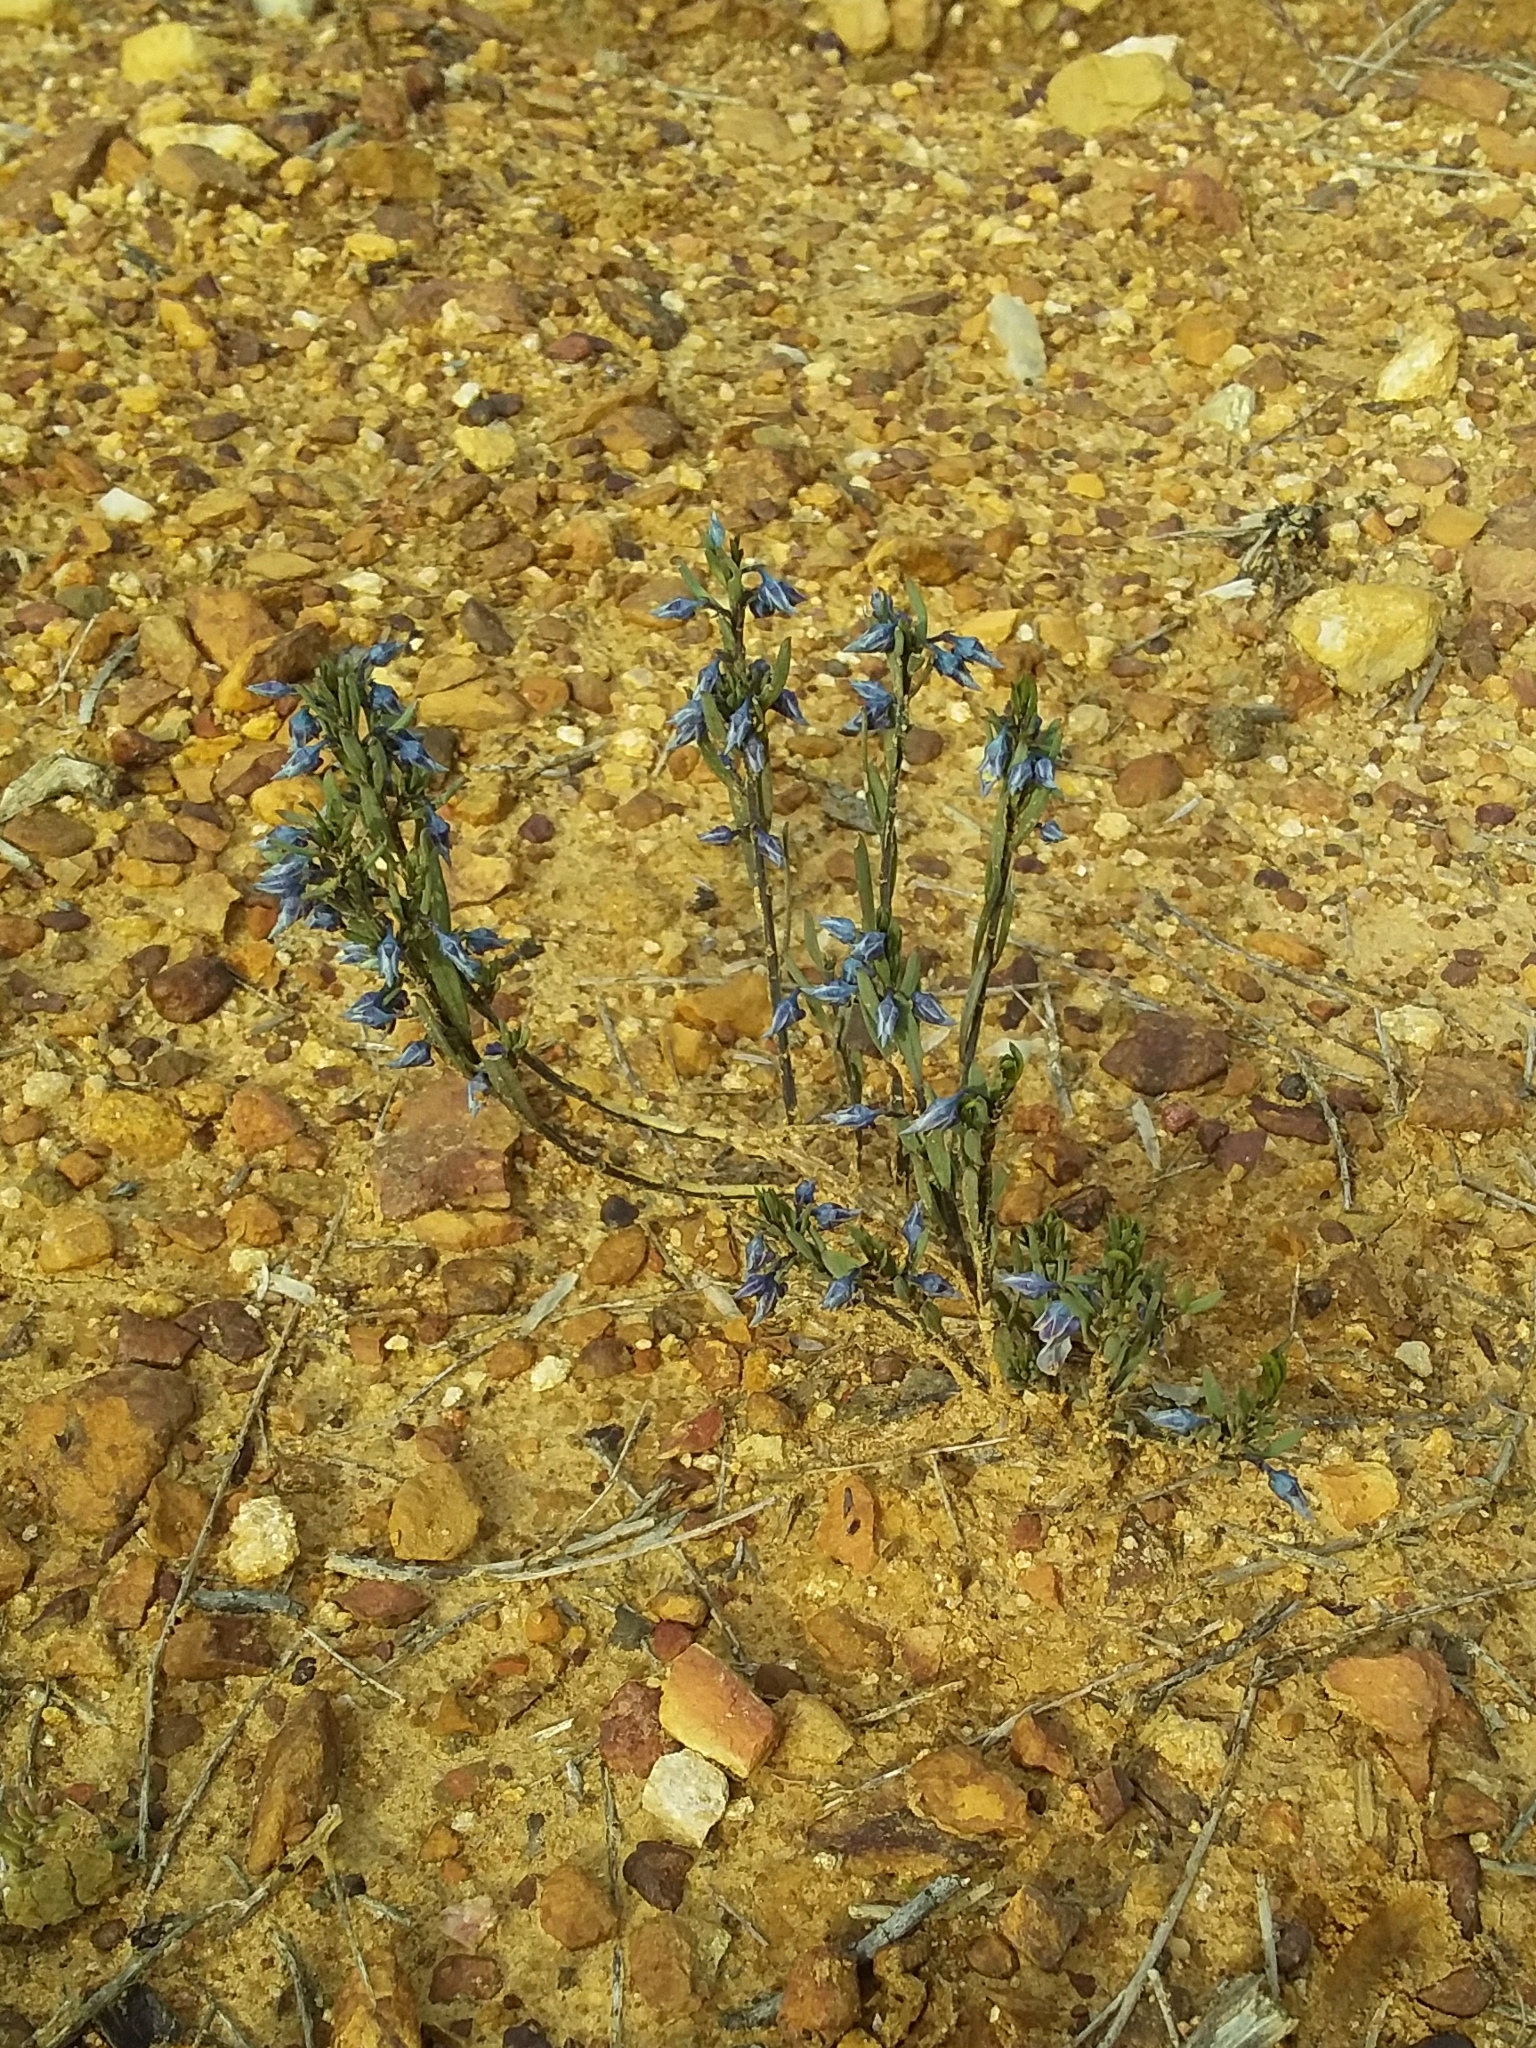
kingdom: Plantae
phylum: Tracheophyta
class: Magnoliopsida
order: Malpighiales
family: Violaceae
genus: Pigea
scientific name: Pigea floribunda
